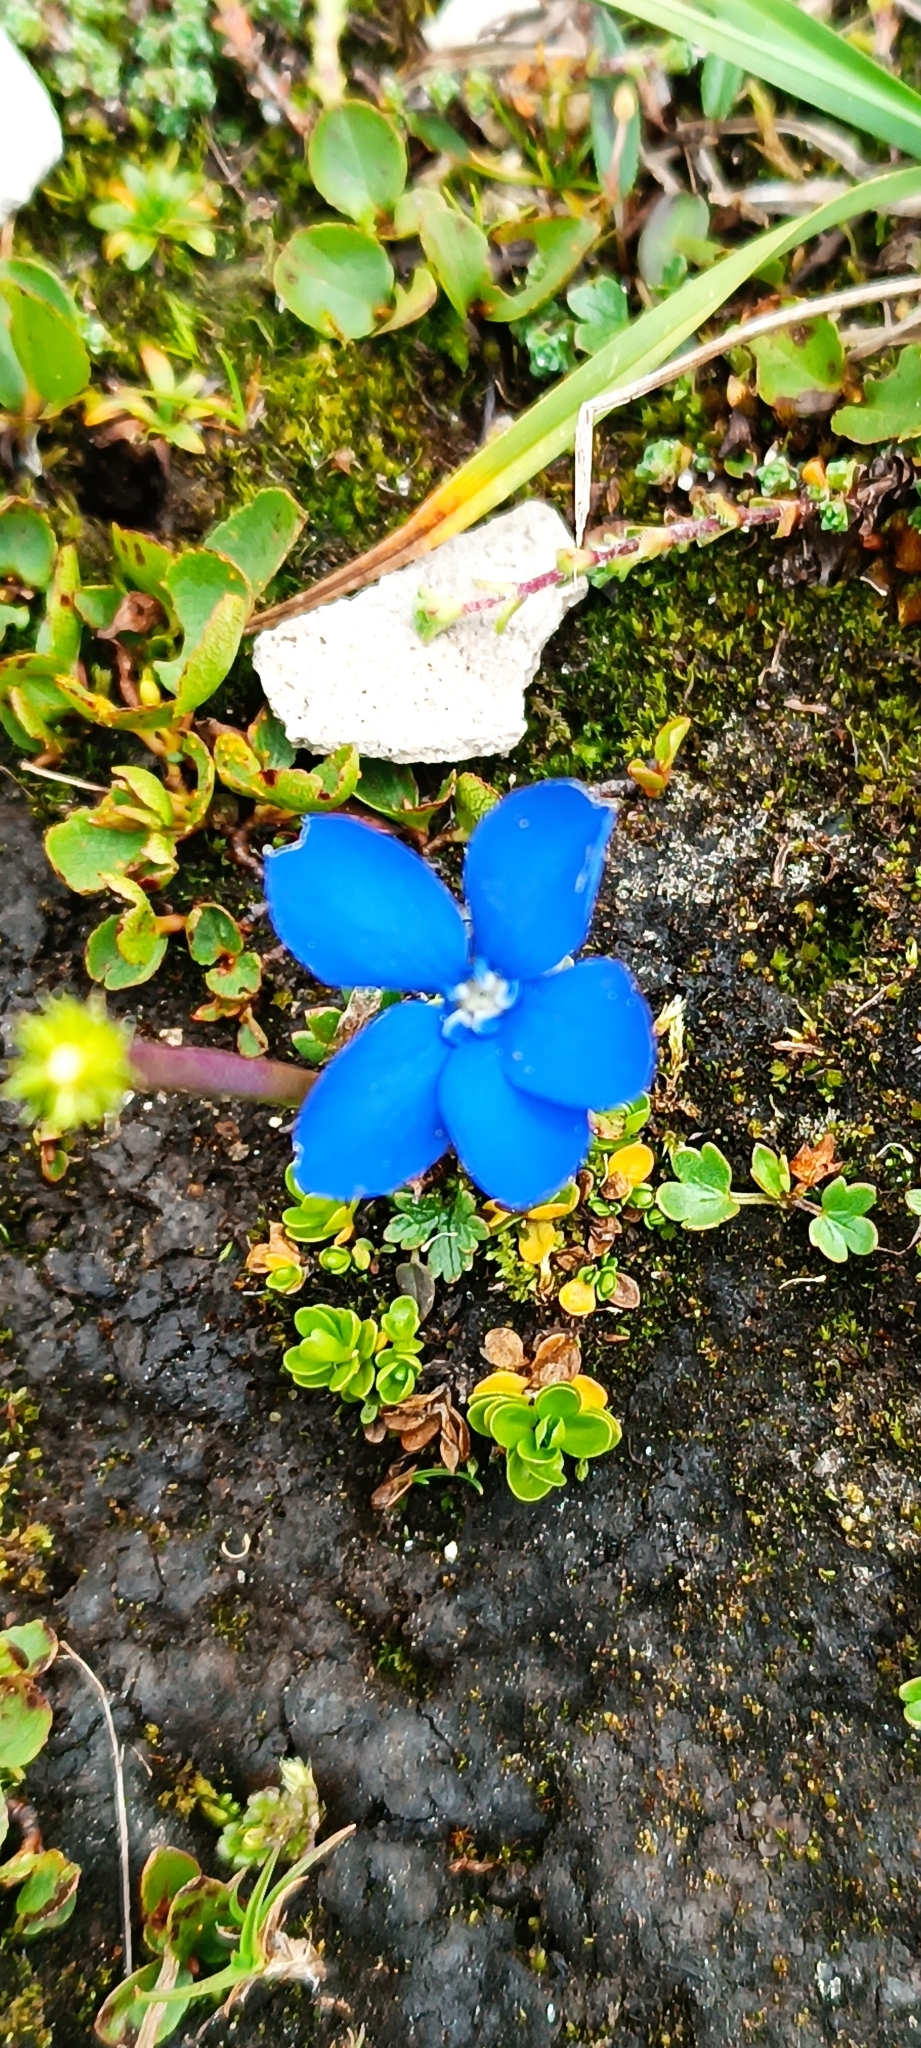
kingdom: Plantae
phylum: Tracheophyta
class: Magnoliopsida
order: Gentianales
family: Gentianaceae
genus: Gentiana
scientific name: Gentiana bavarica
